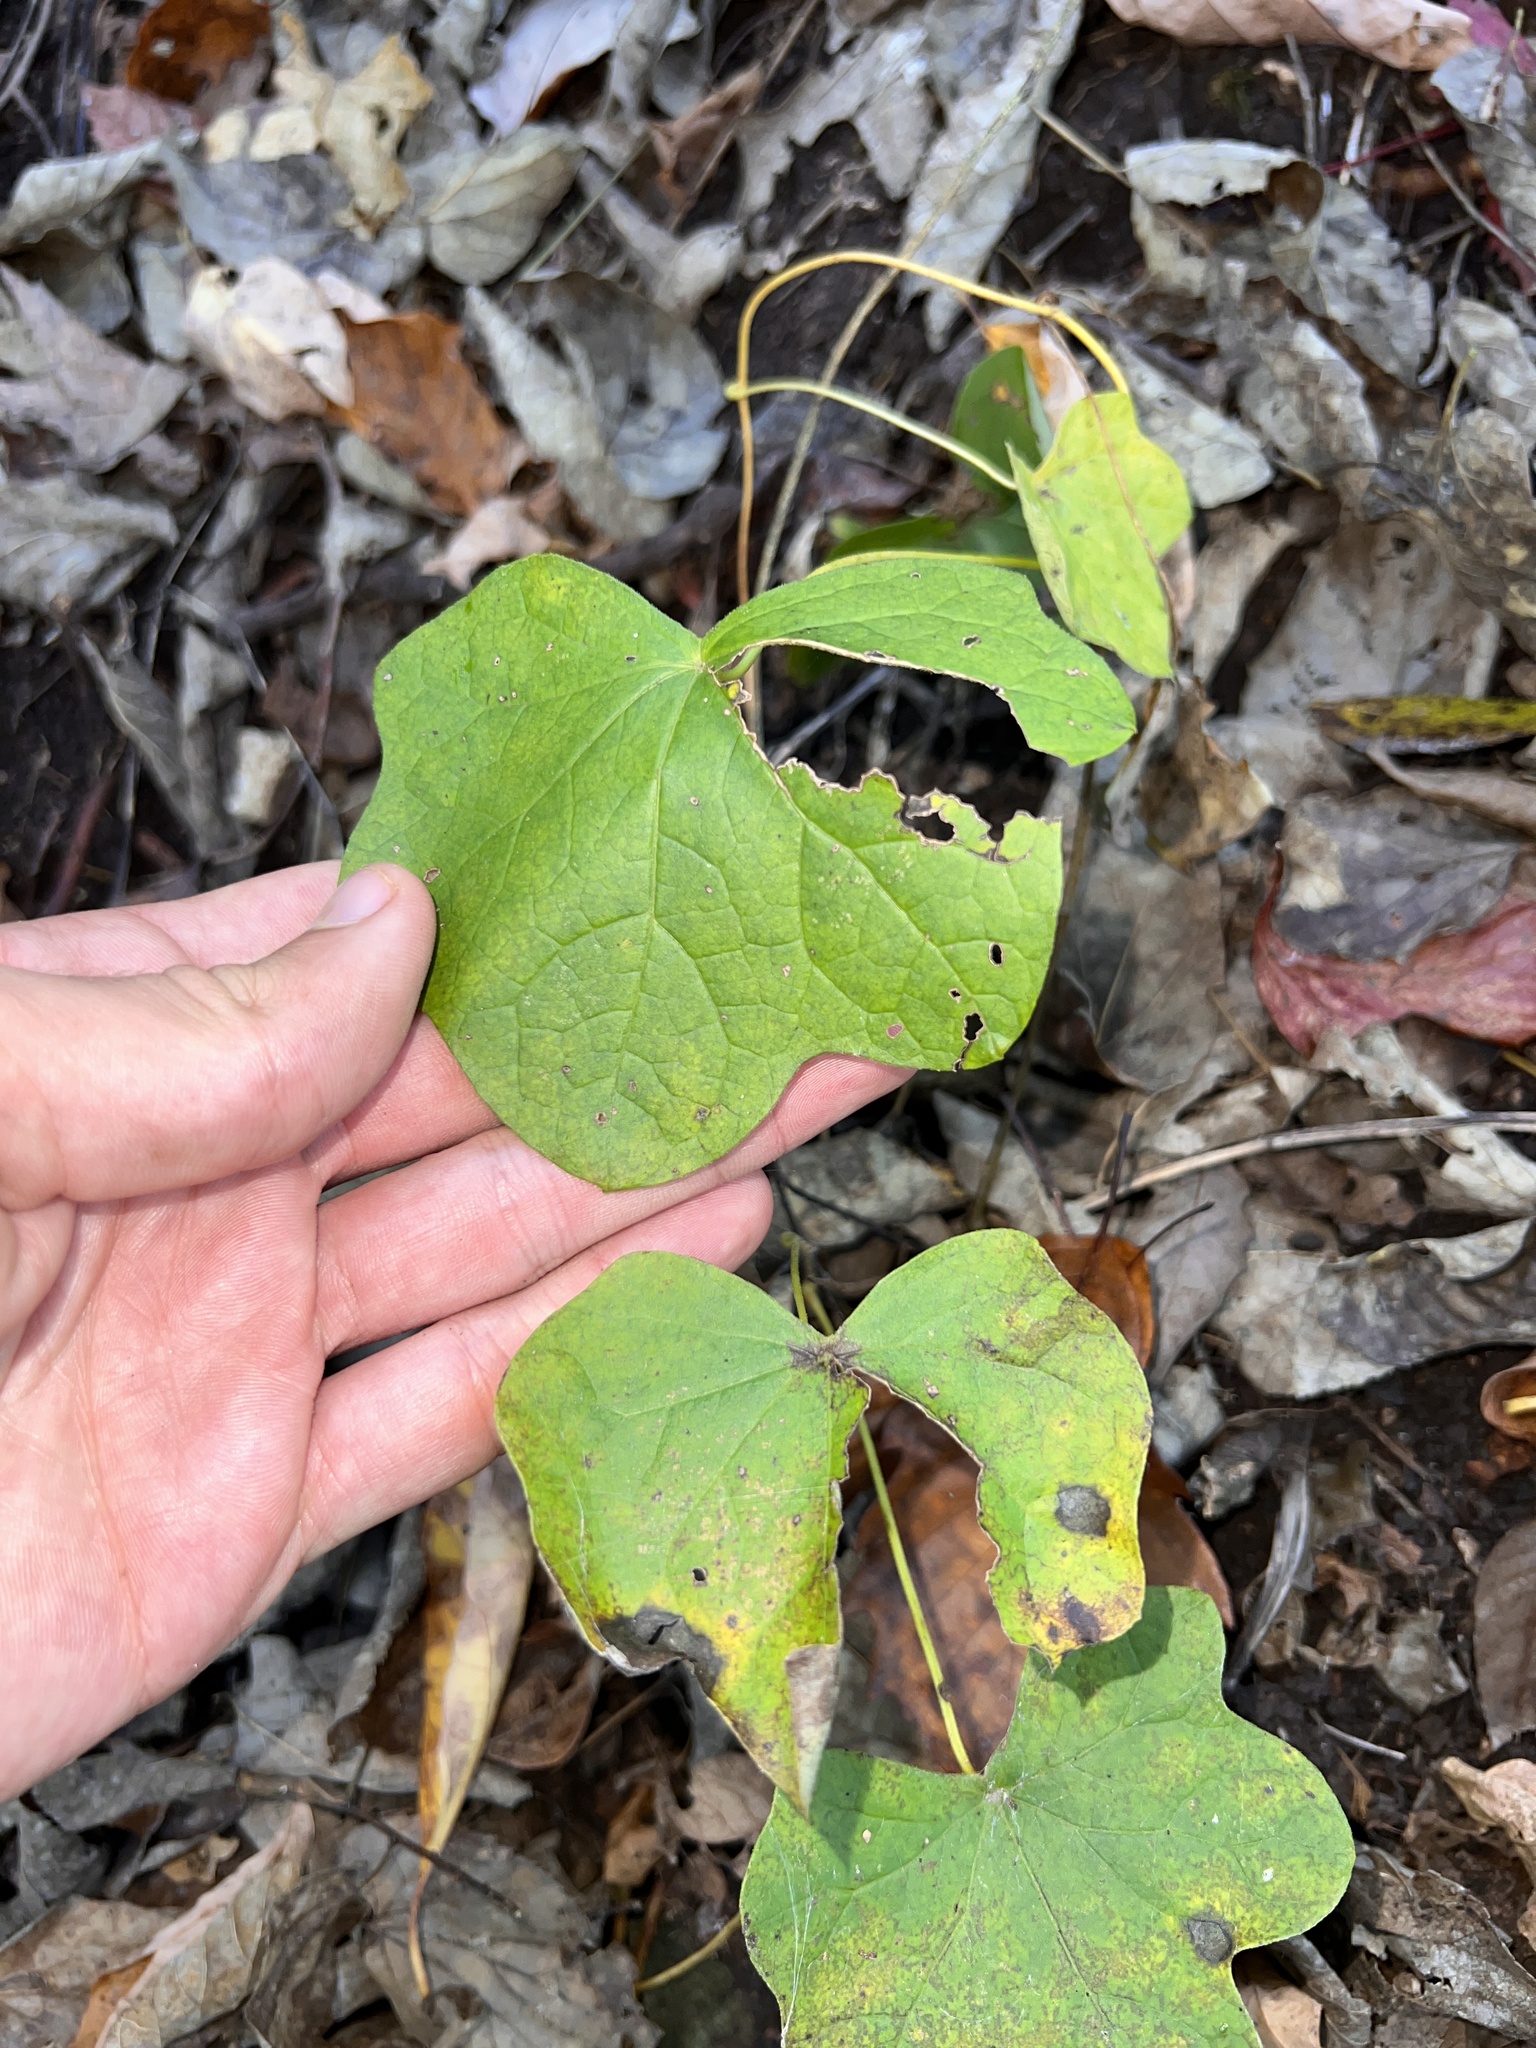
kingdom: Plantae
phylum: Tracheophyta
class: Magnoliopsida
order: Ranunculales
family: Menispermaceae
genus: Menispermum
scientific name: Menispermum canadense
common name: Moonseed
